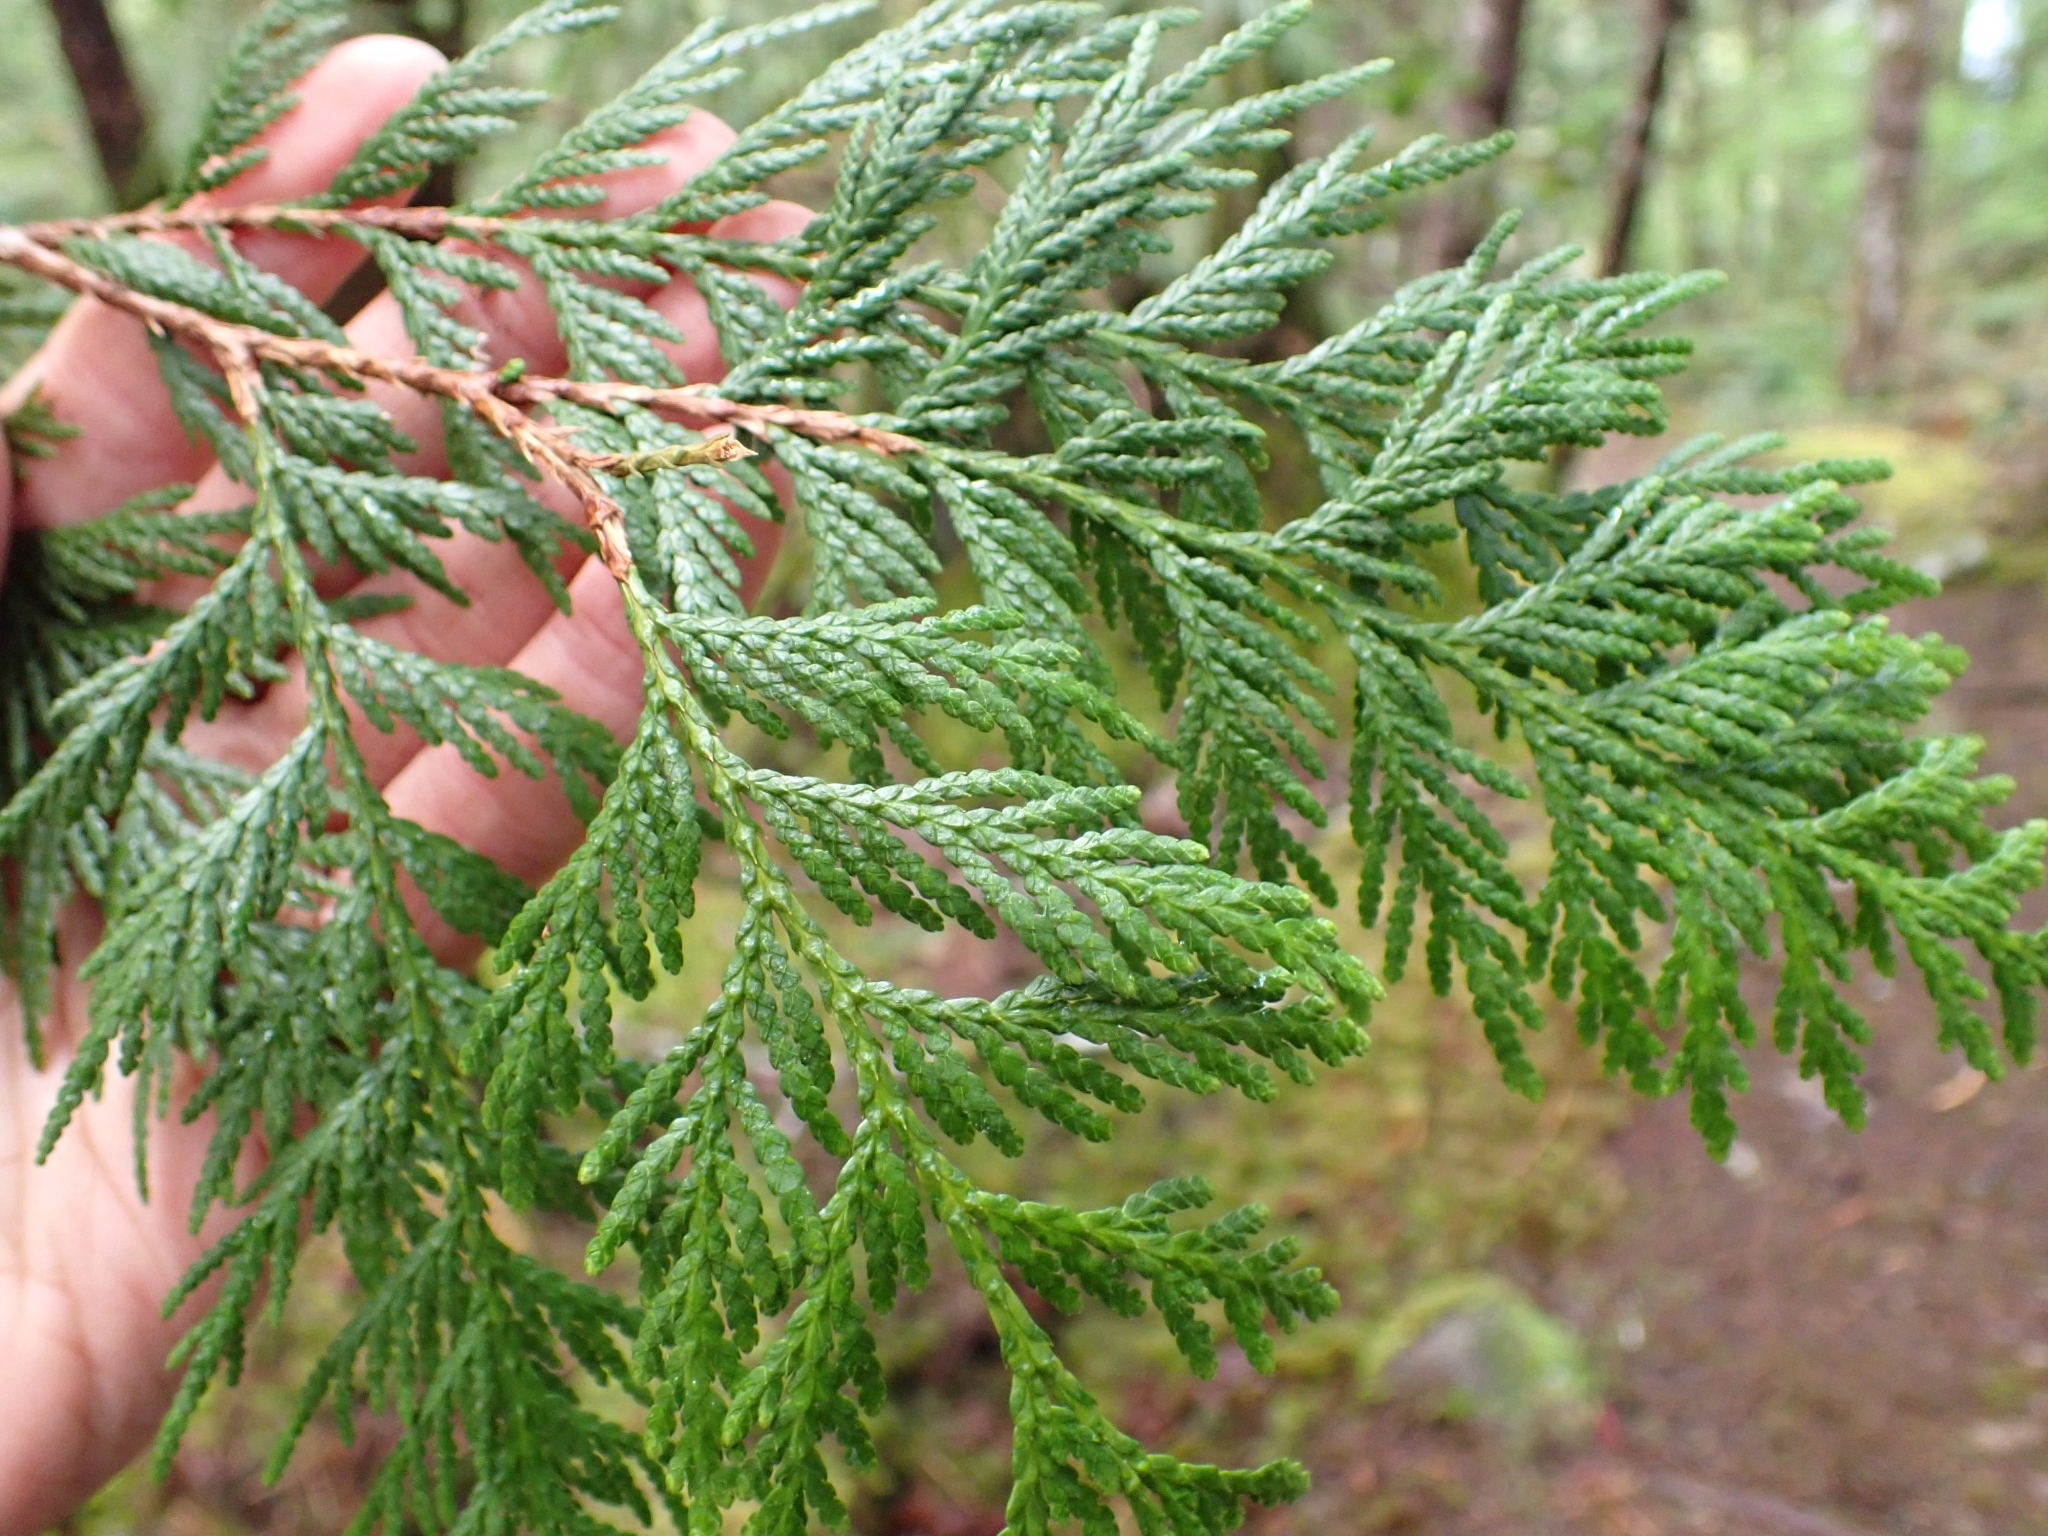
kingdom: Plantae
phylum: Tracheophyta
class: Pinopsida
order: Pinales
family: Cupressaceae
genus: Thuja
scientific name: Thuja plicata
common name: Western red-cedar
